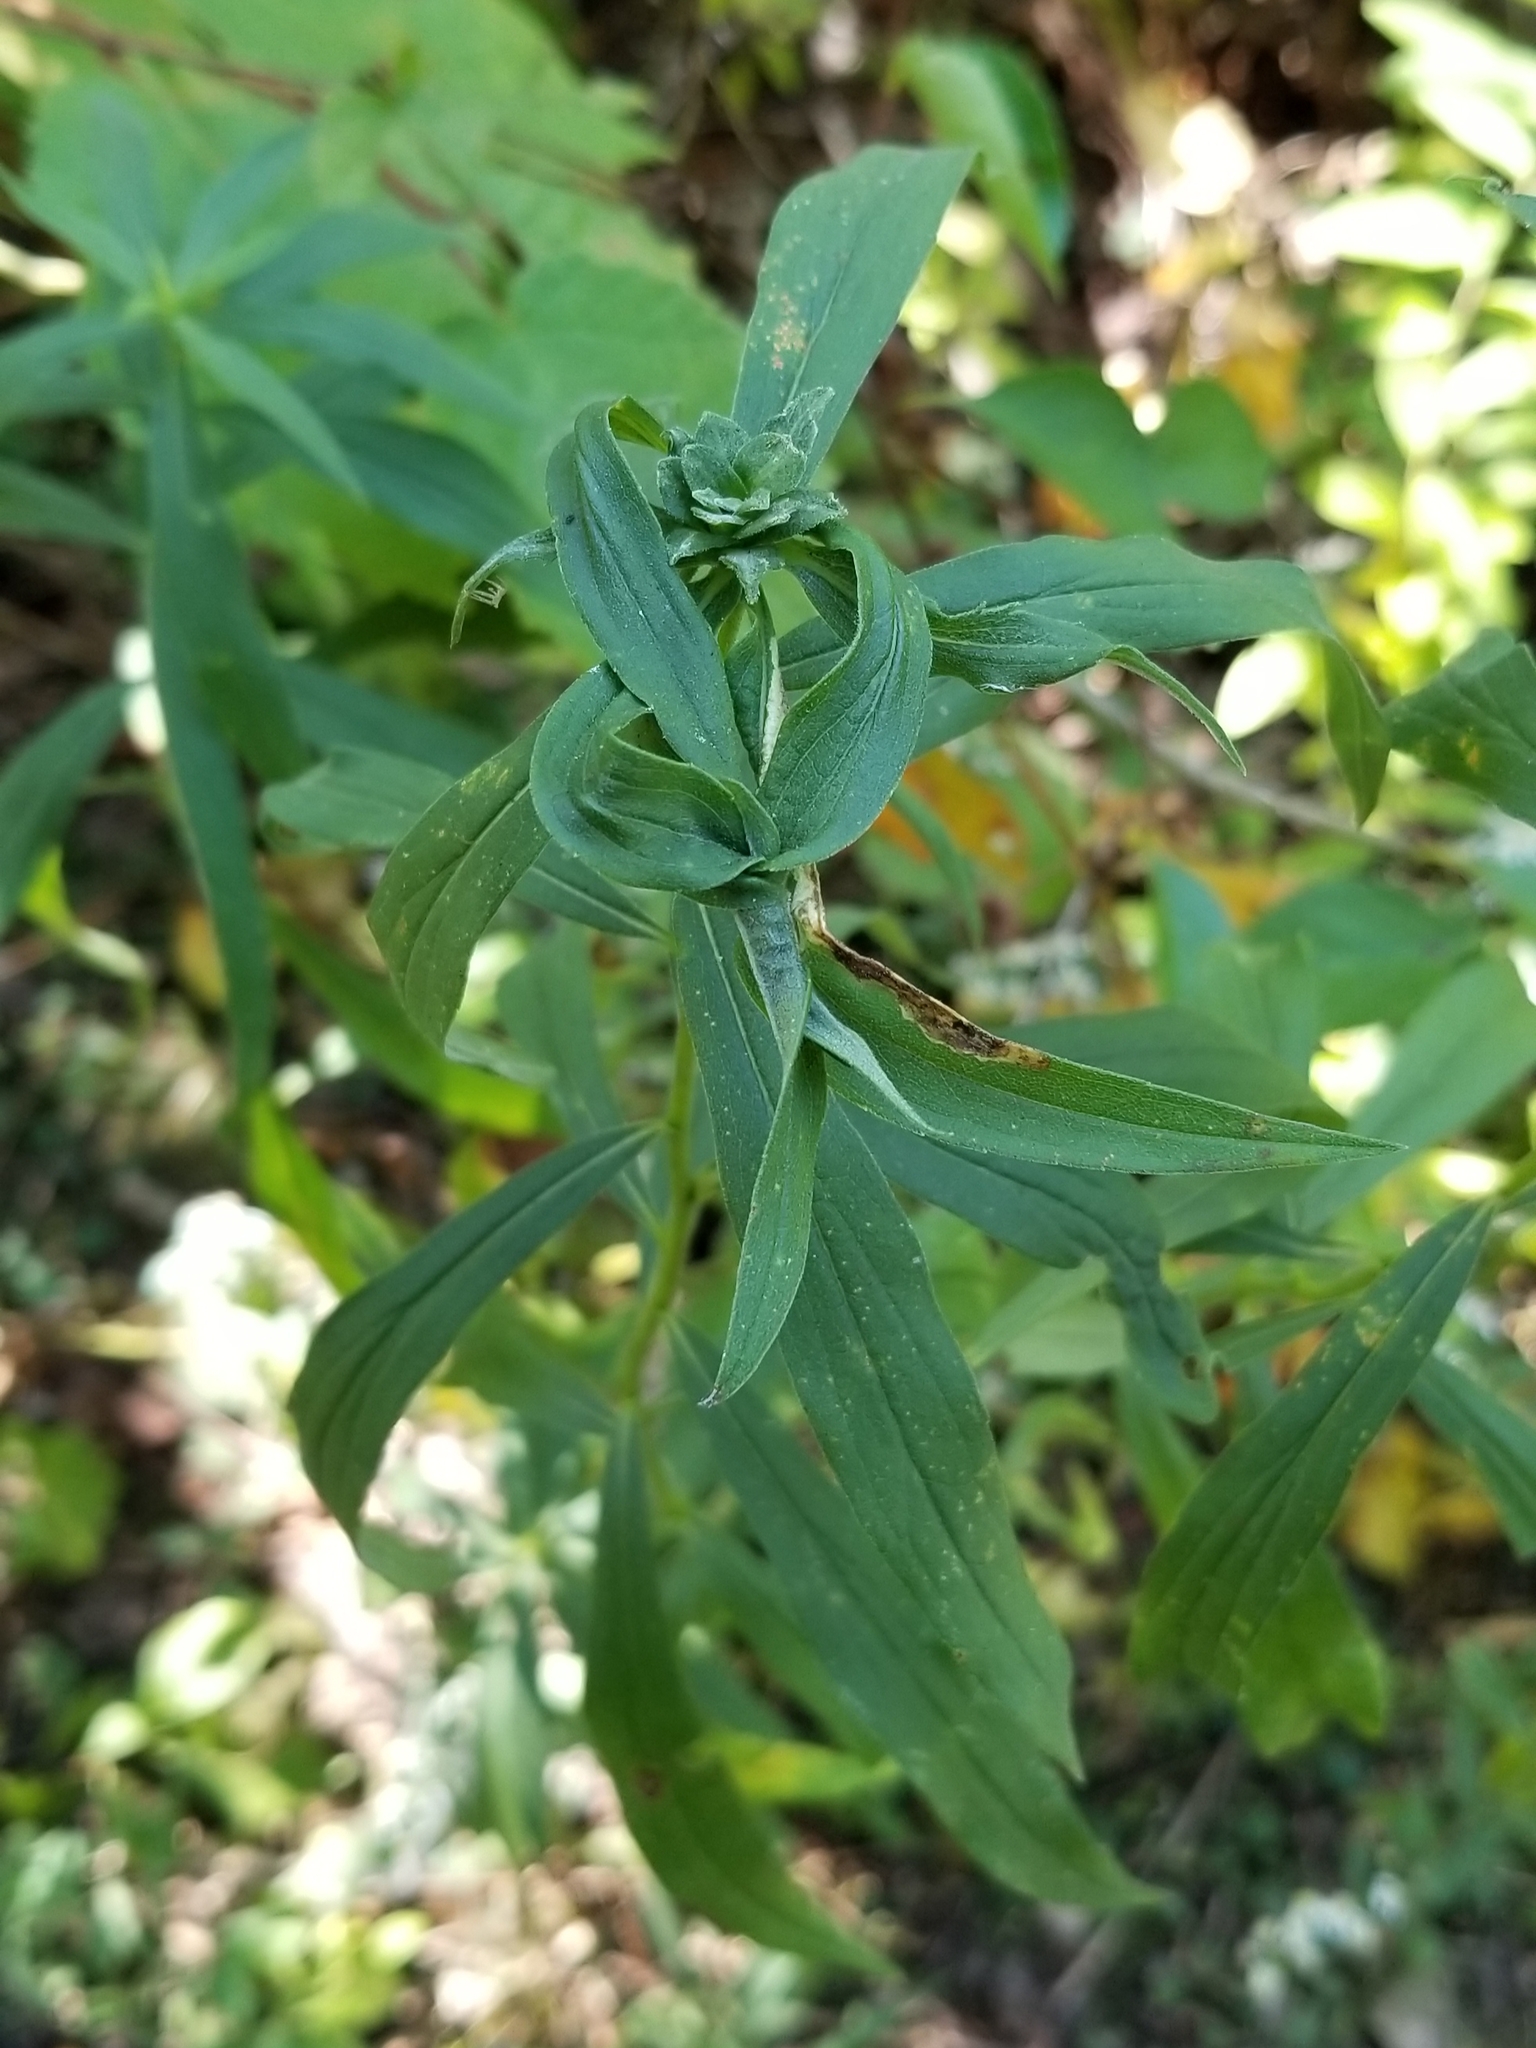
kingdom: Animalia
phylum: Arthropoda
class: Insecta
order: Diptera
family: Cecidomyiidae
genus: Asphondylia
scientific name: Asphondylia solidaginis
